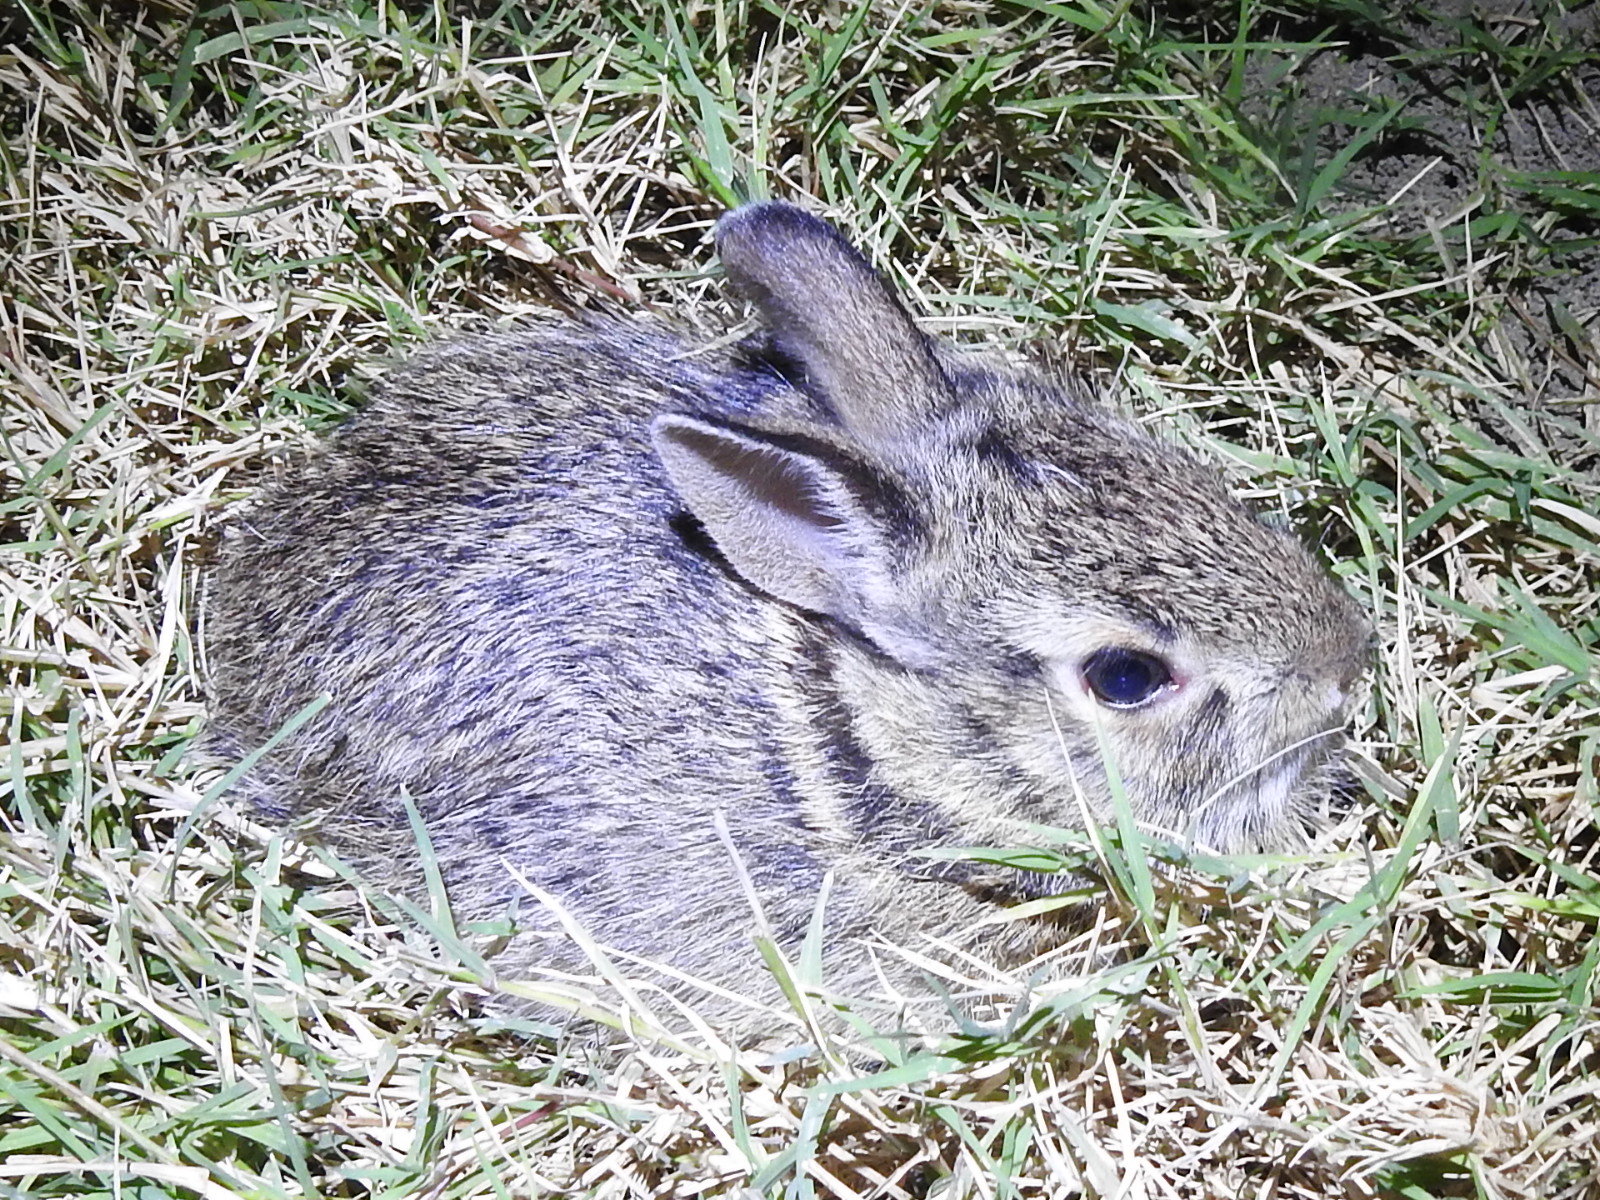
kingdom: Animalia
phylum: Chordata
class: Mammalia
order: Lagomorpha
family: Leporidae
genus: Sylvilagus
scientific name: Sylvilagus floridanus
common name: Eastern cottontail
